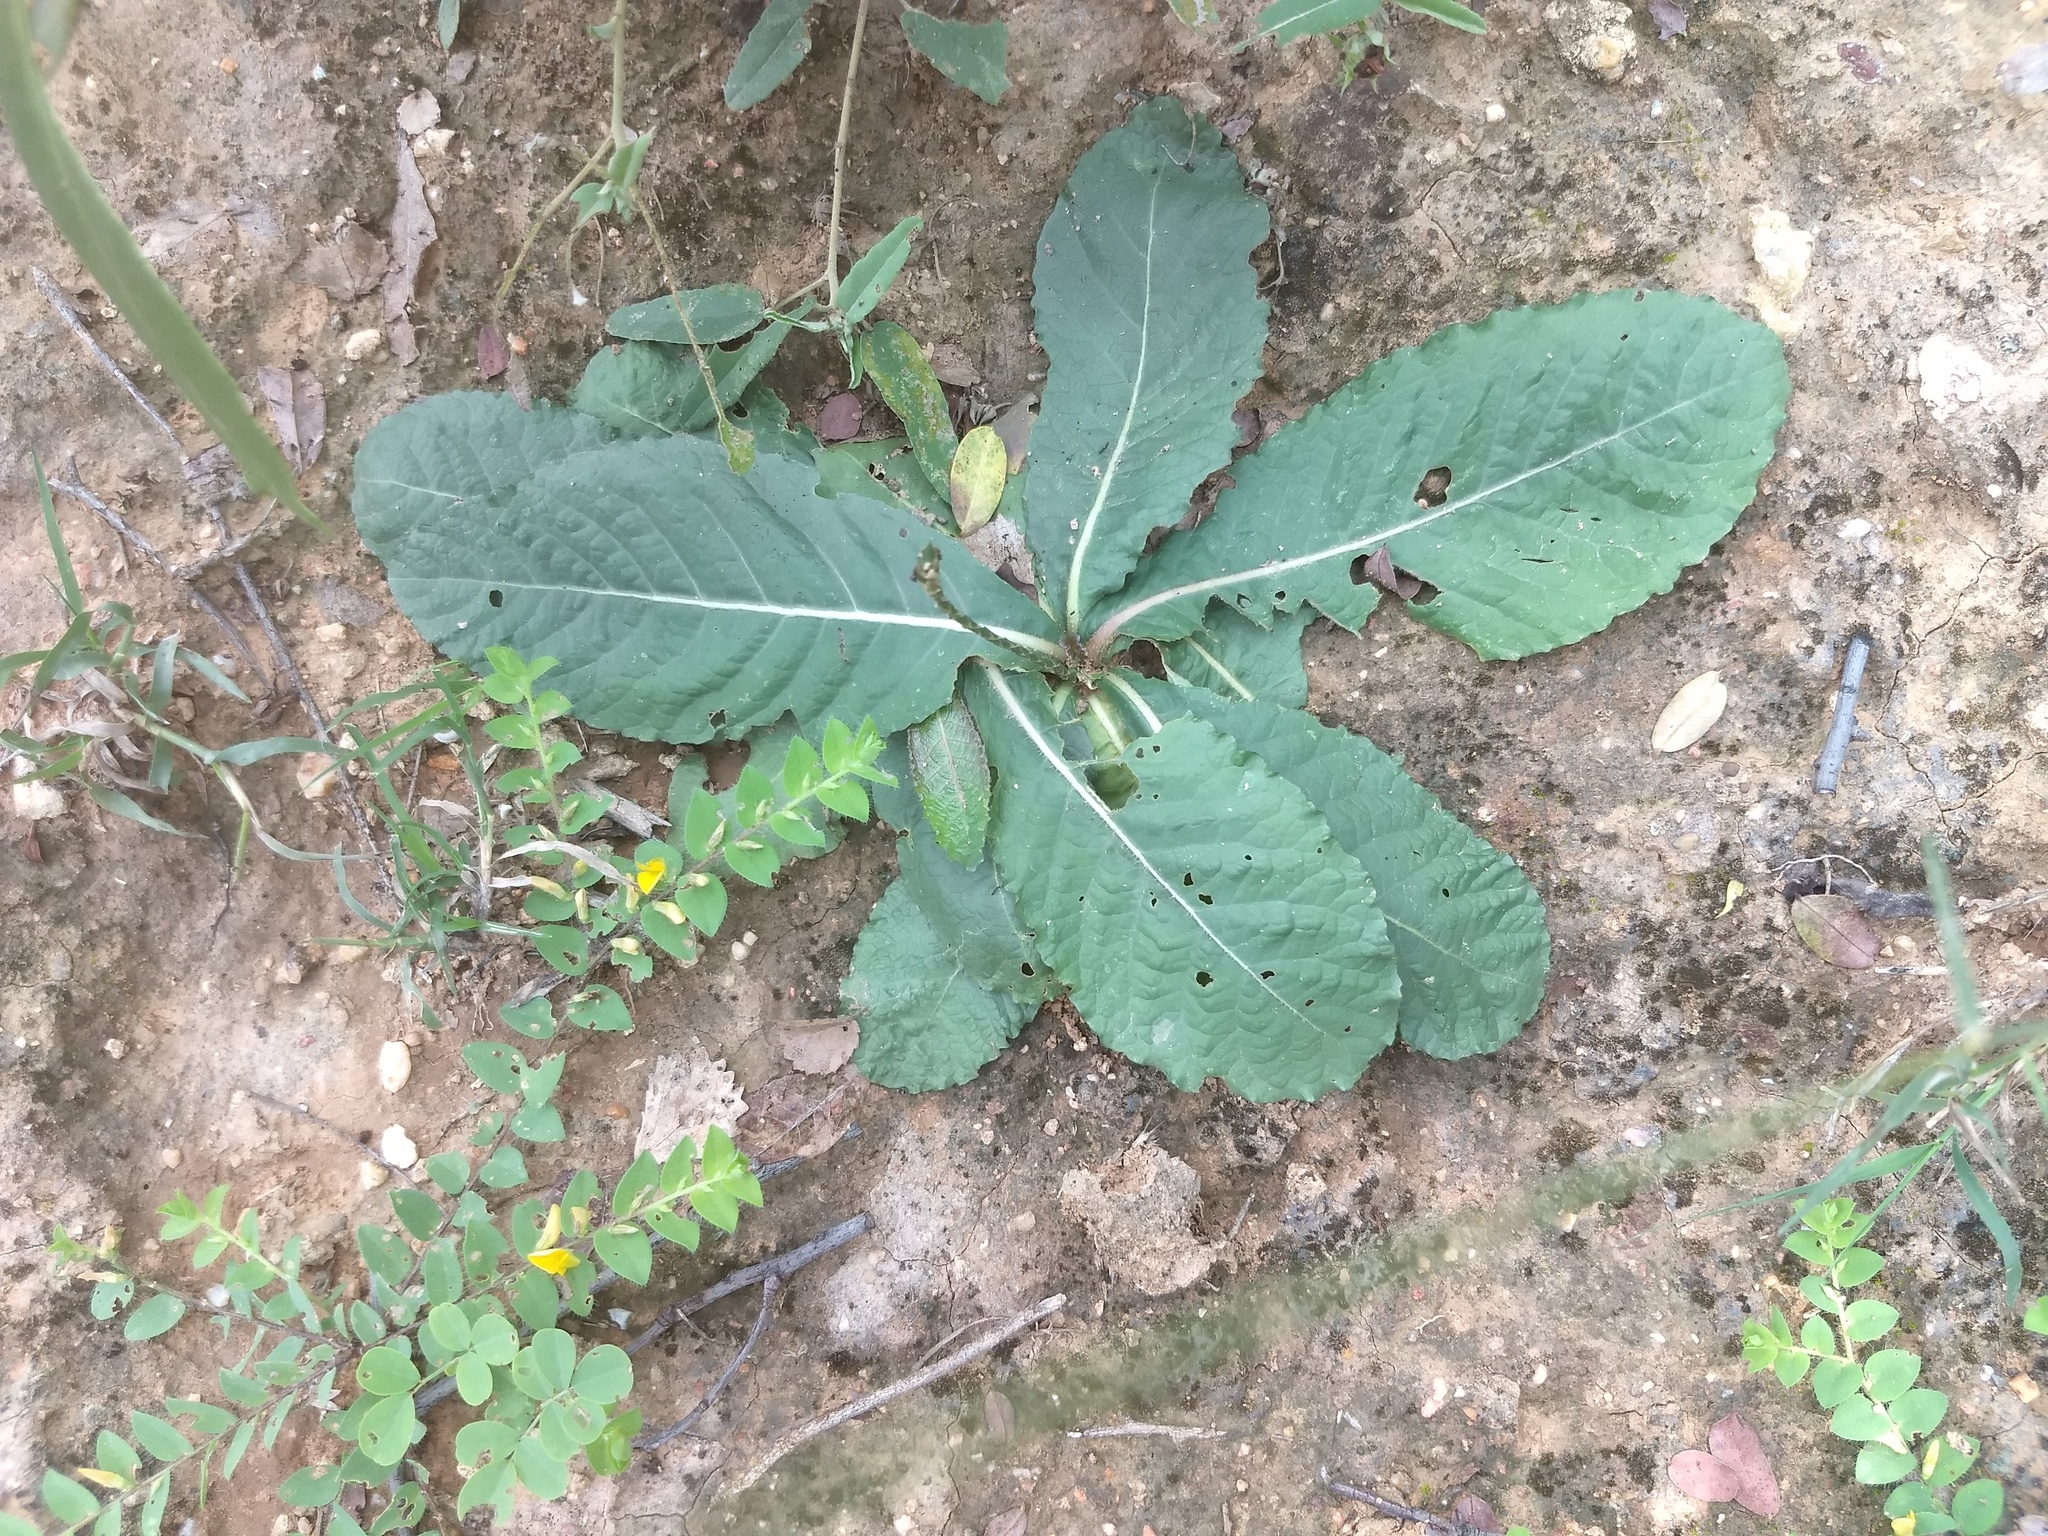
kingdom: Plantae
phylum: Tracheophyta
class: Magnoliopsida
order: Lamiales
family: Acanthaceae
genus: Elytraria
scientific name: Elytraria acaulis
